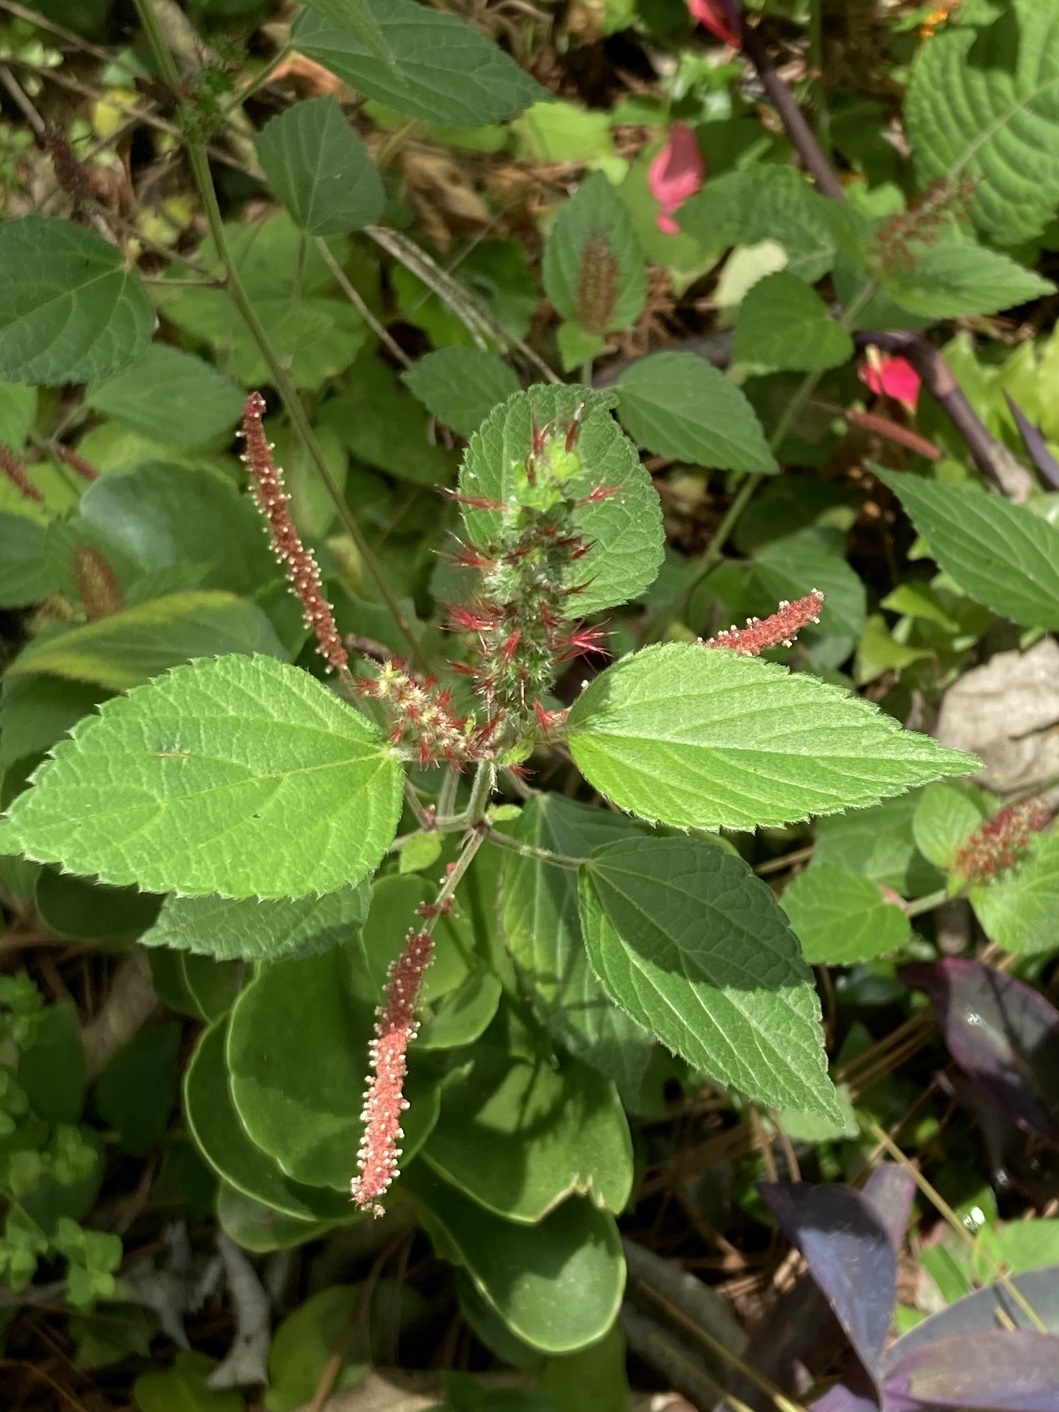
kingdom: Plantae
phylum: Tracheophyta
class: Magnoliopsida
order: Malpighiales
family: Euphorbiaceae
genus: Acalypha
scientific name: Acalypha phleoides
